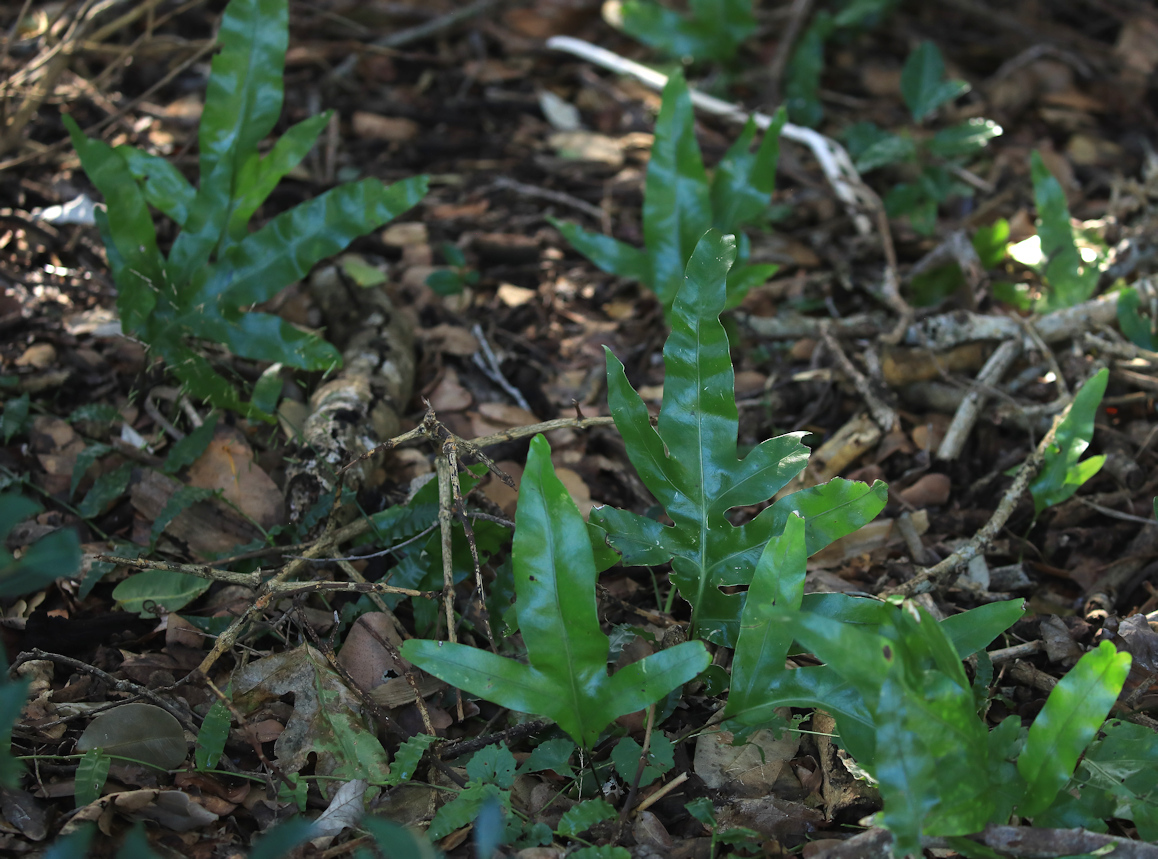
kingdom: Plantae
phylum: Tracheophyta
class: Polypodiopsida
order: Polypodiales
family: Polypodiaceae
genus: Microsorum
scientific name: Microsorum scolopendria
